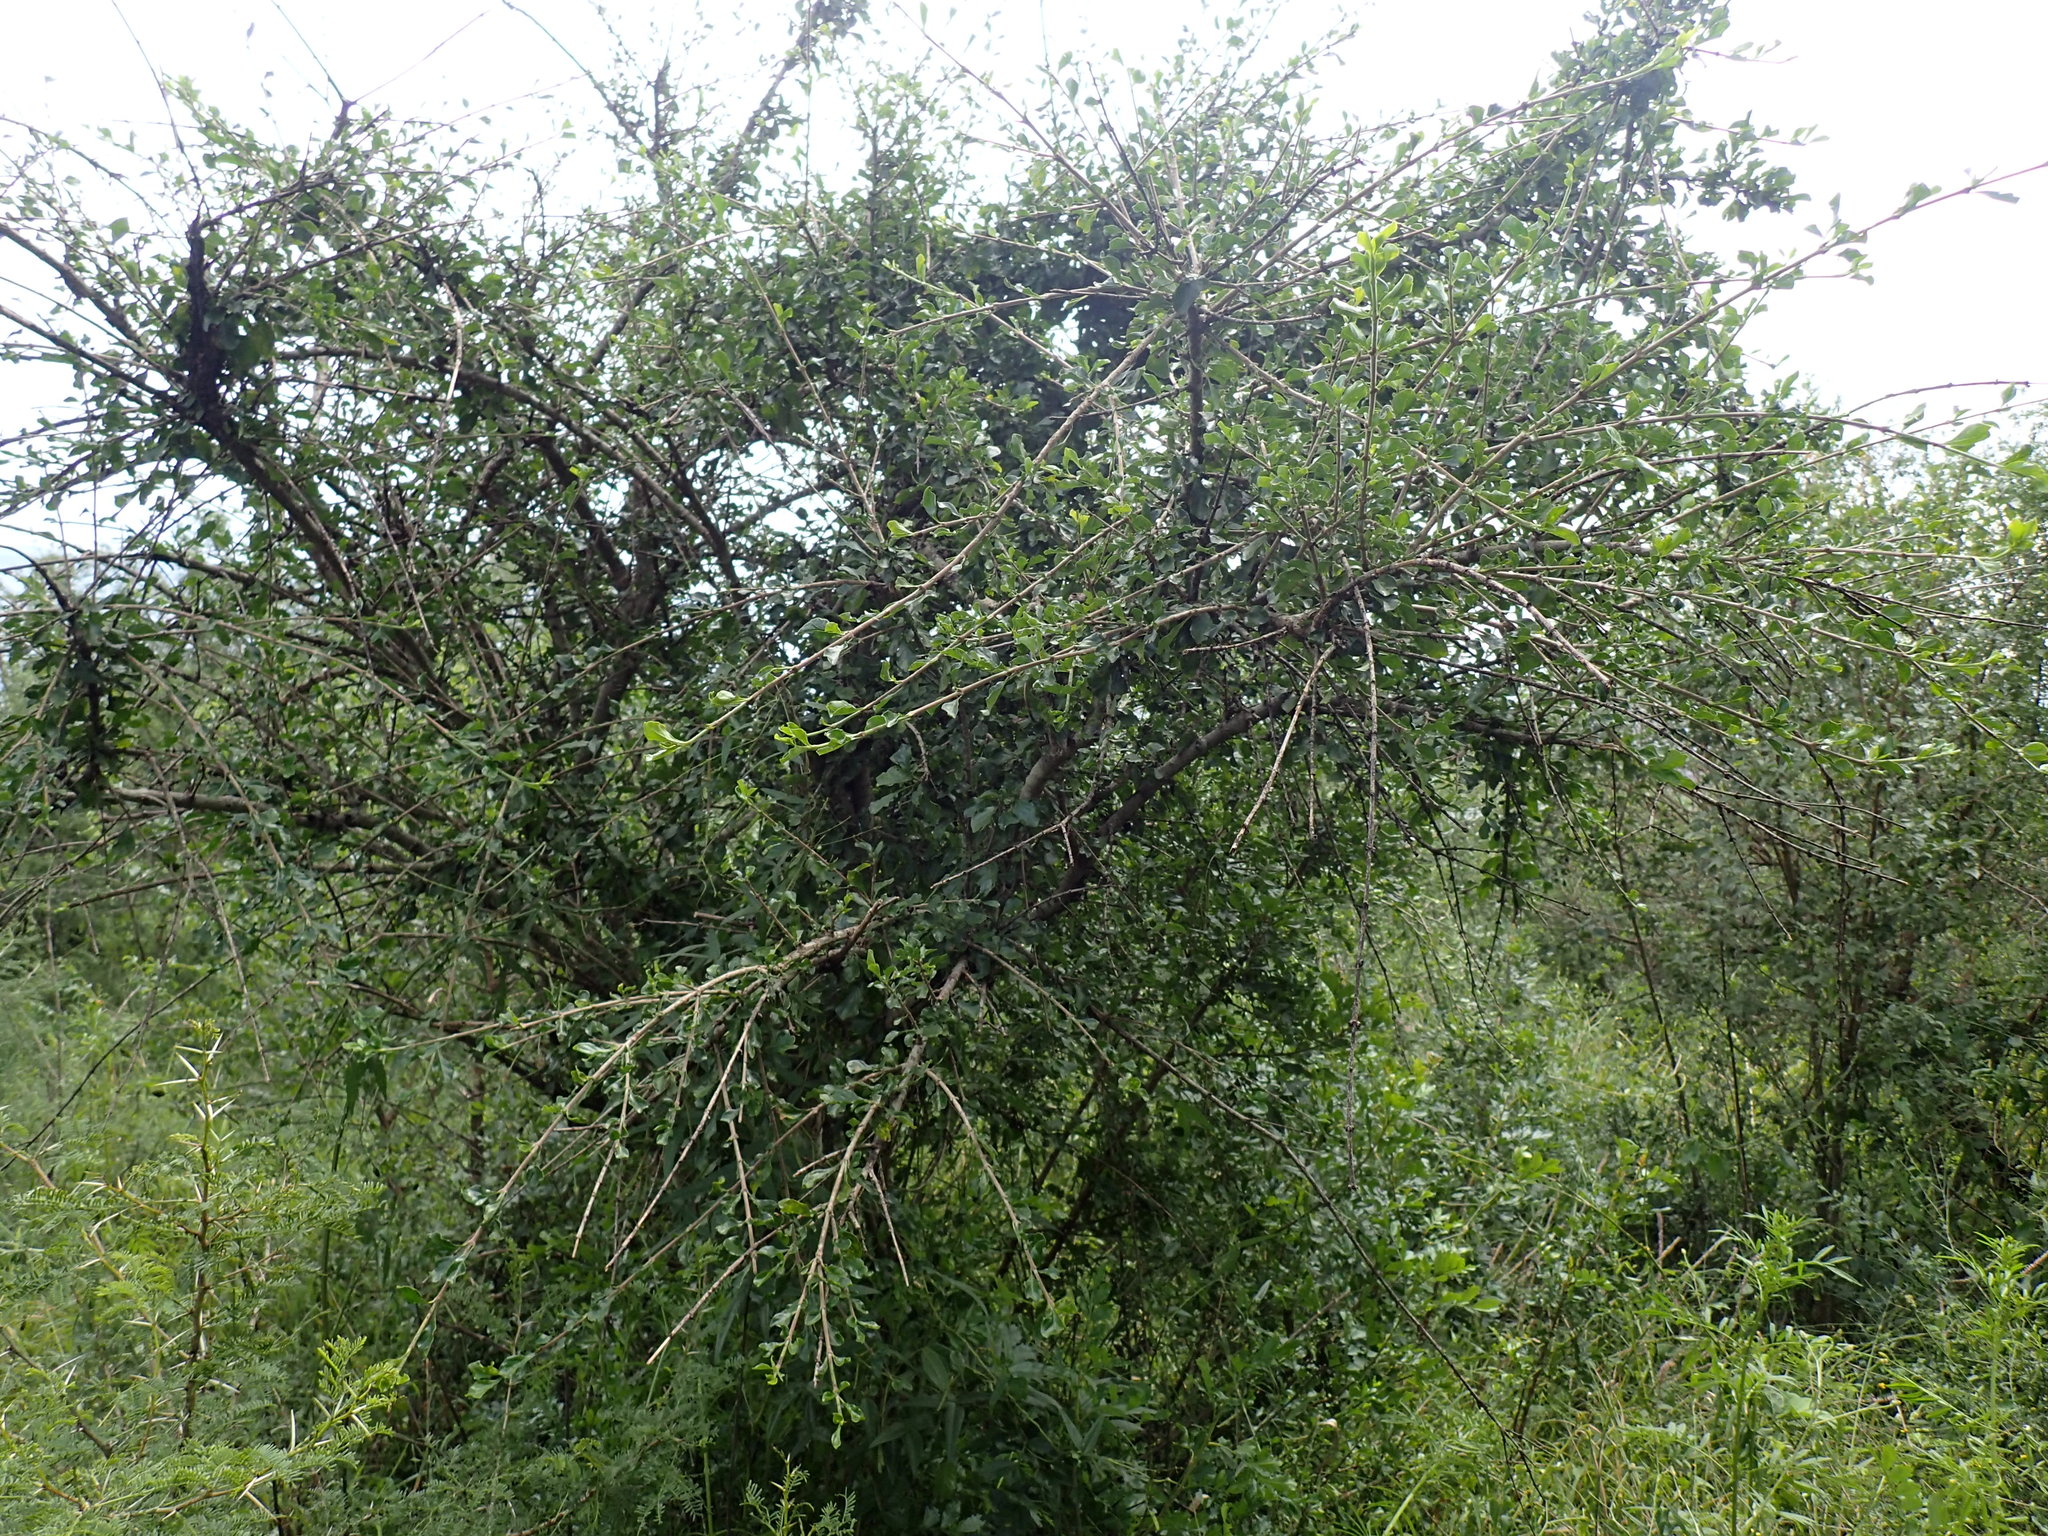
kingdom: Plantae
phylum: Tracheophyta
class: Magnoliopsida
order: Boraginales
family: Ehretiaceae
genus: Ehretia
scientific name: Ehretia rigida
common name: Cape lilac
